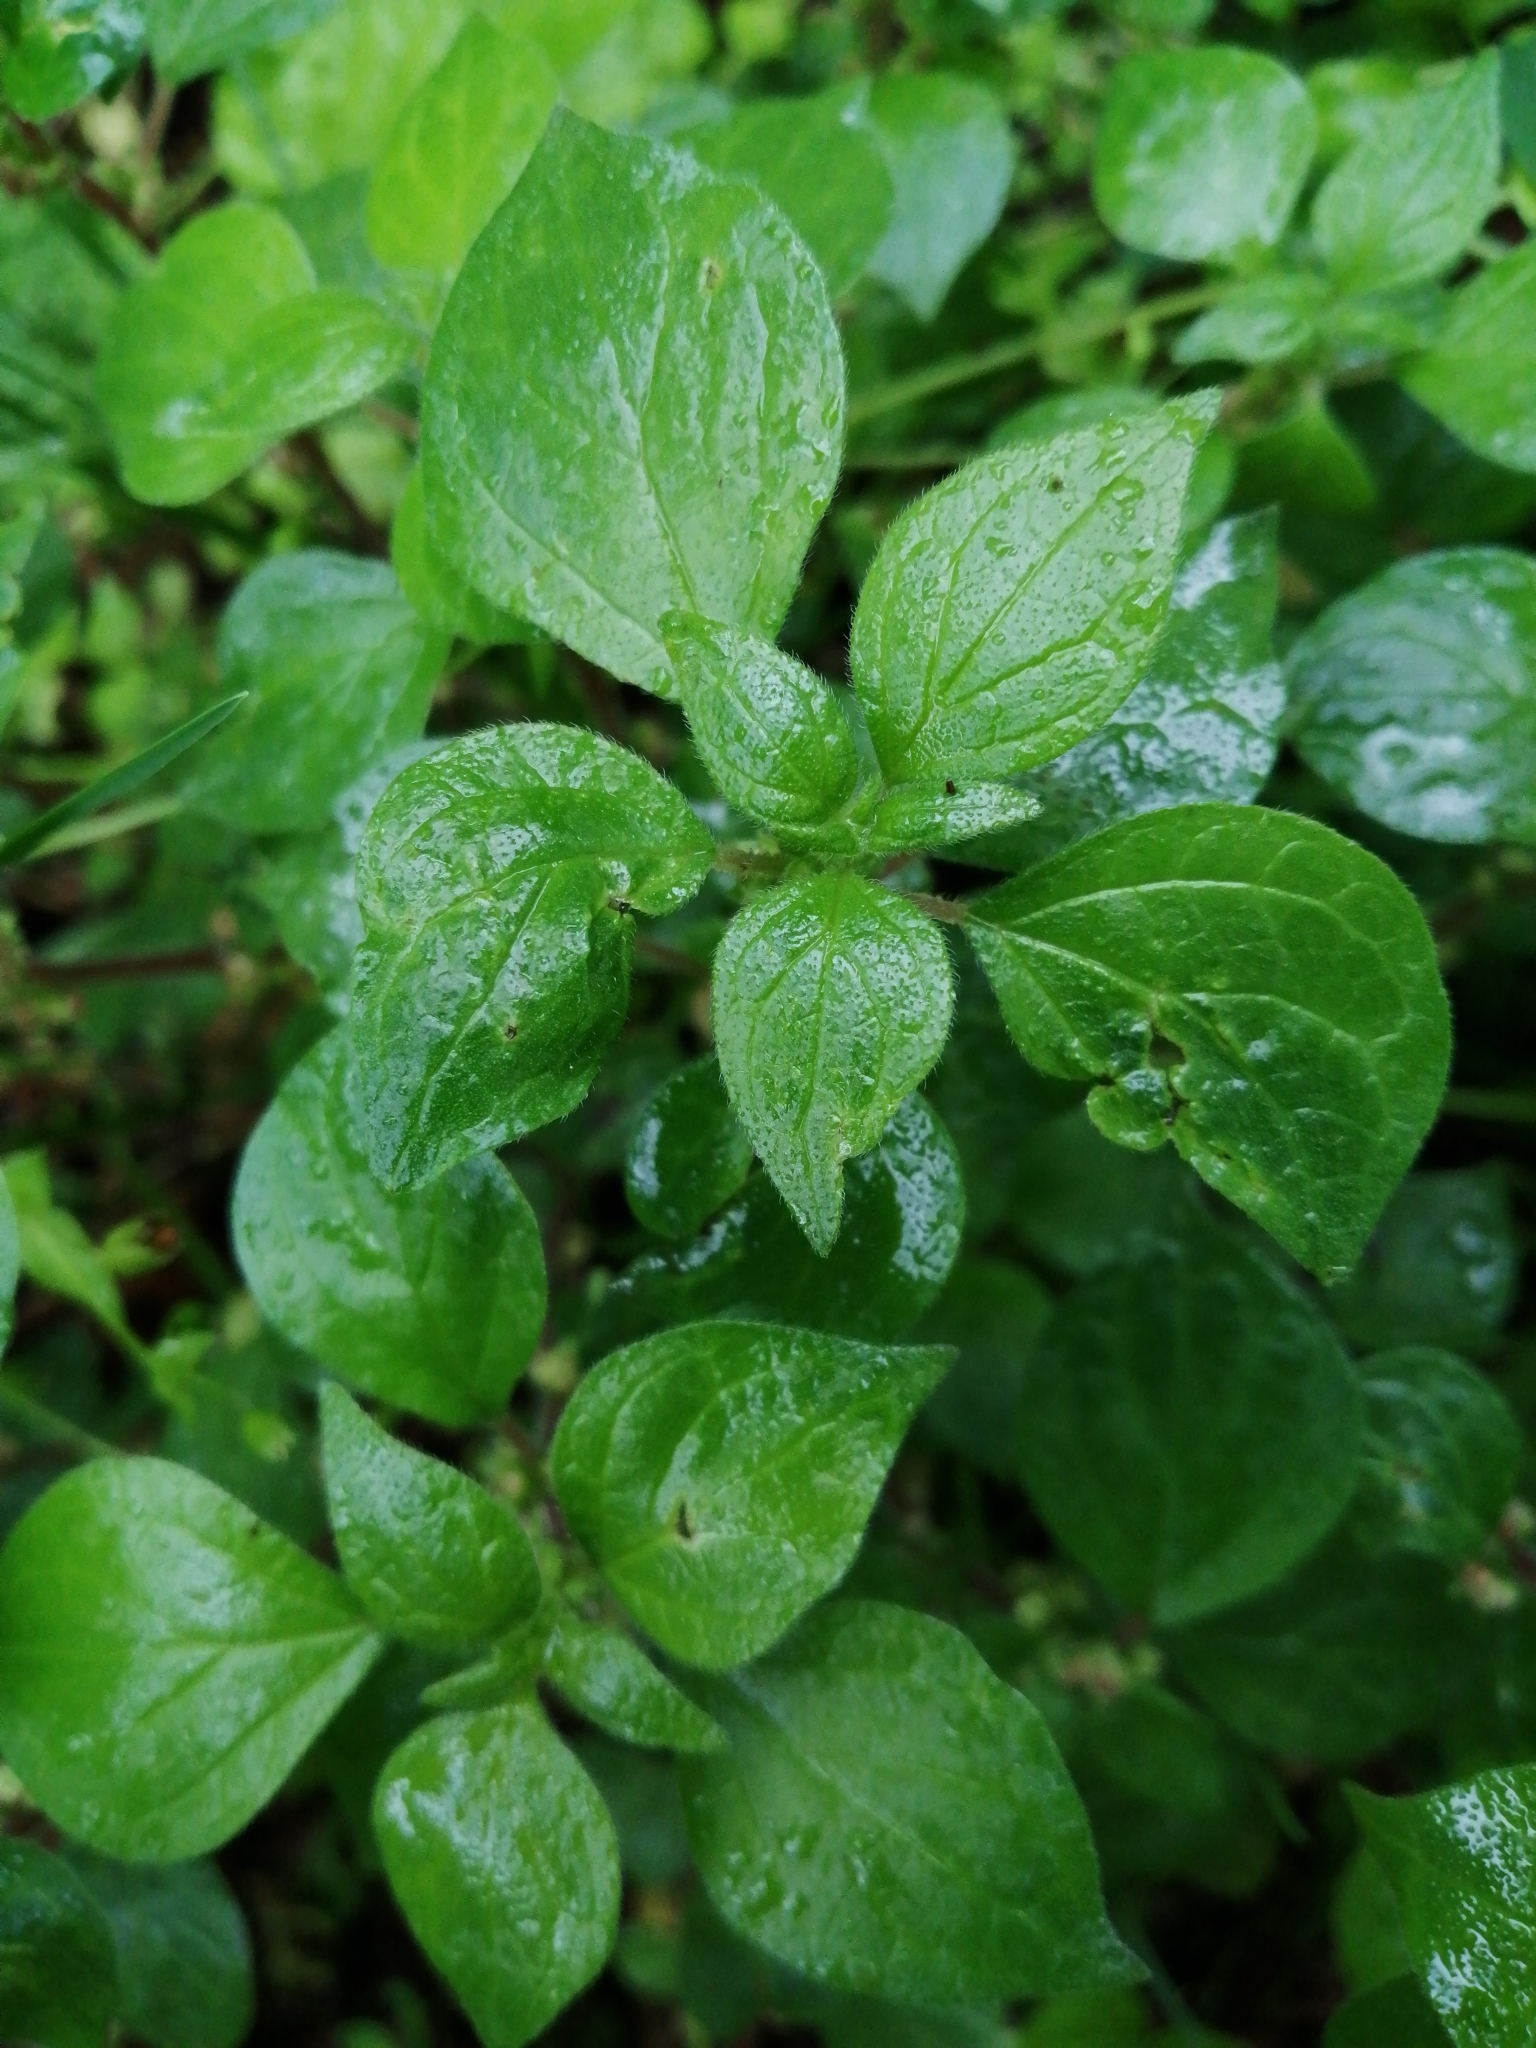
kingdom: Plantae
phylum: Tracheophyta
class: Magnoliopsida
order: Rosales
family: Urticaceae
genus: Parietaria
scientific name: Parietaria officinalis
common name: Eastern pellitory-of-the-wall
